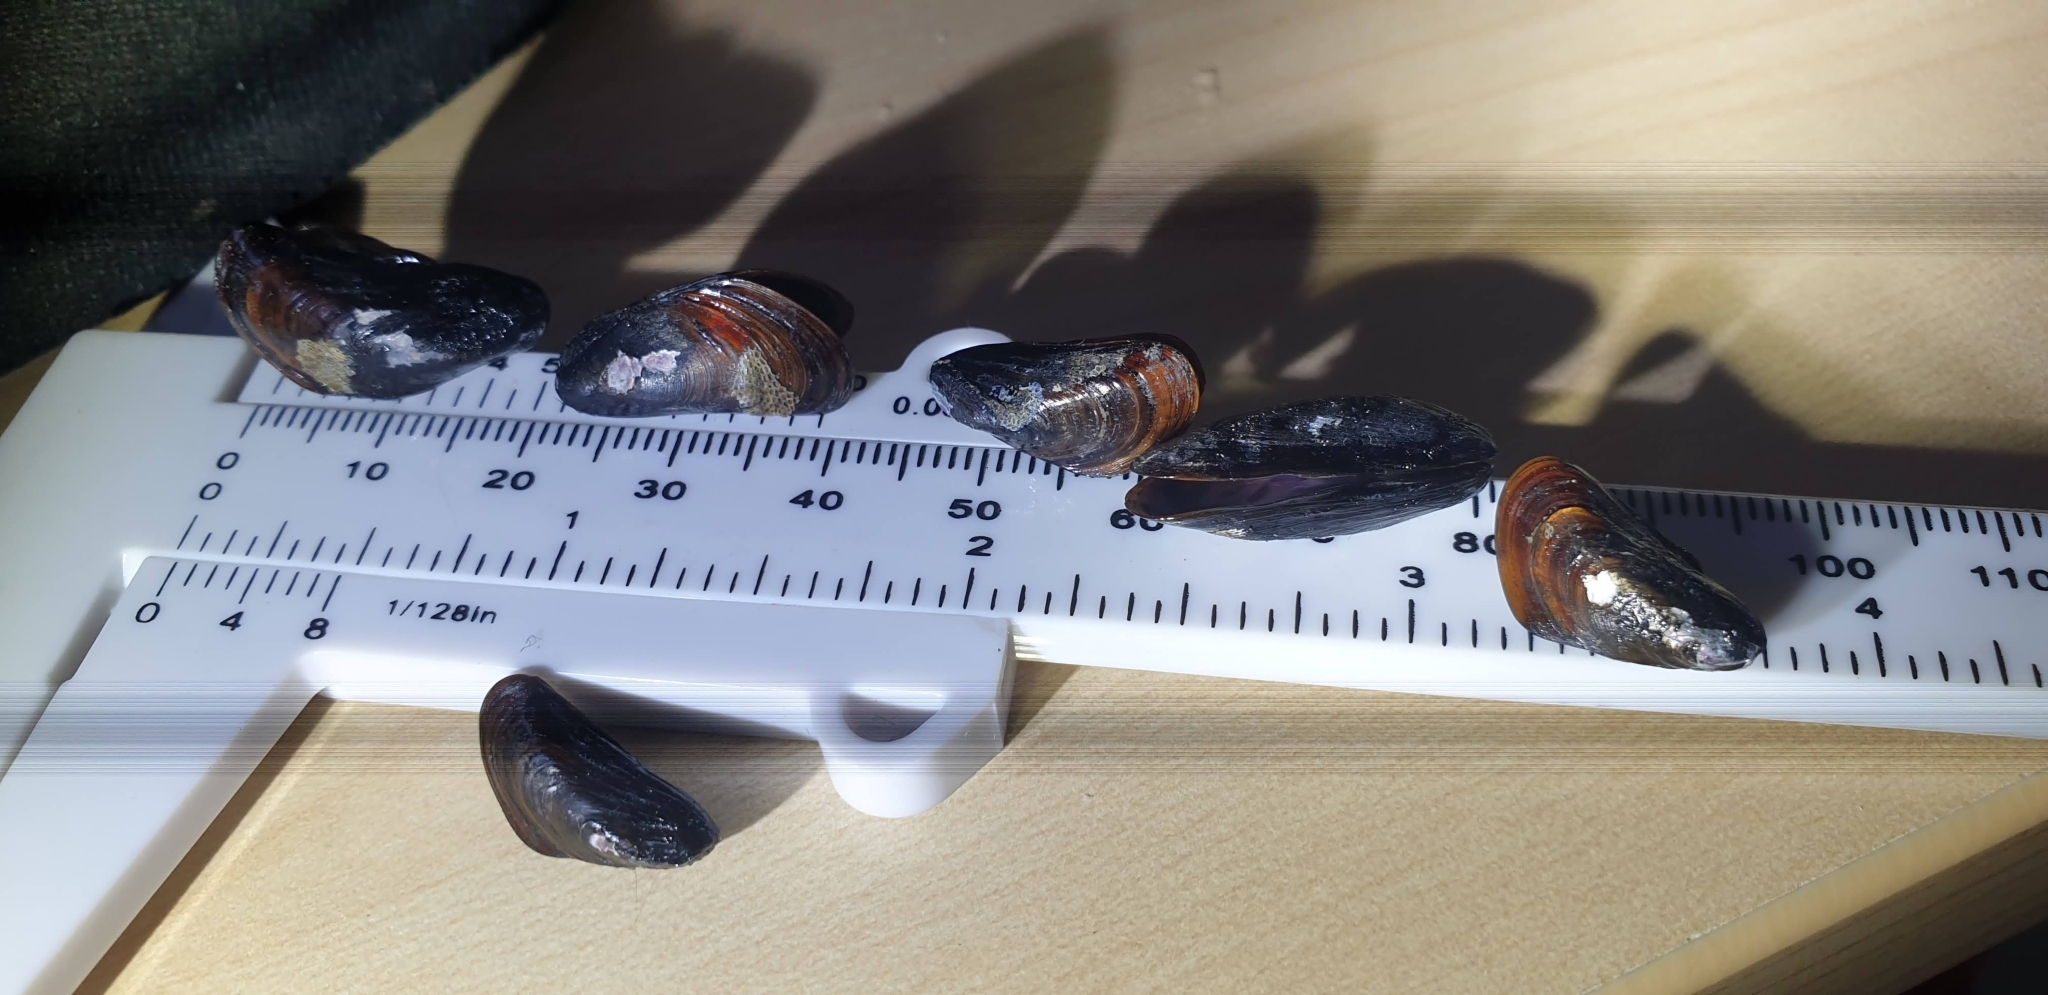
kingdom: Animalia
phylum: Mollusca
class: Bivalvia
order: Mytilida
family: Mytilidae
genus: Xenostrobus
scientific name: Xenostrobus securis
